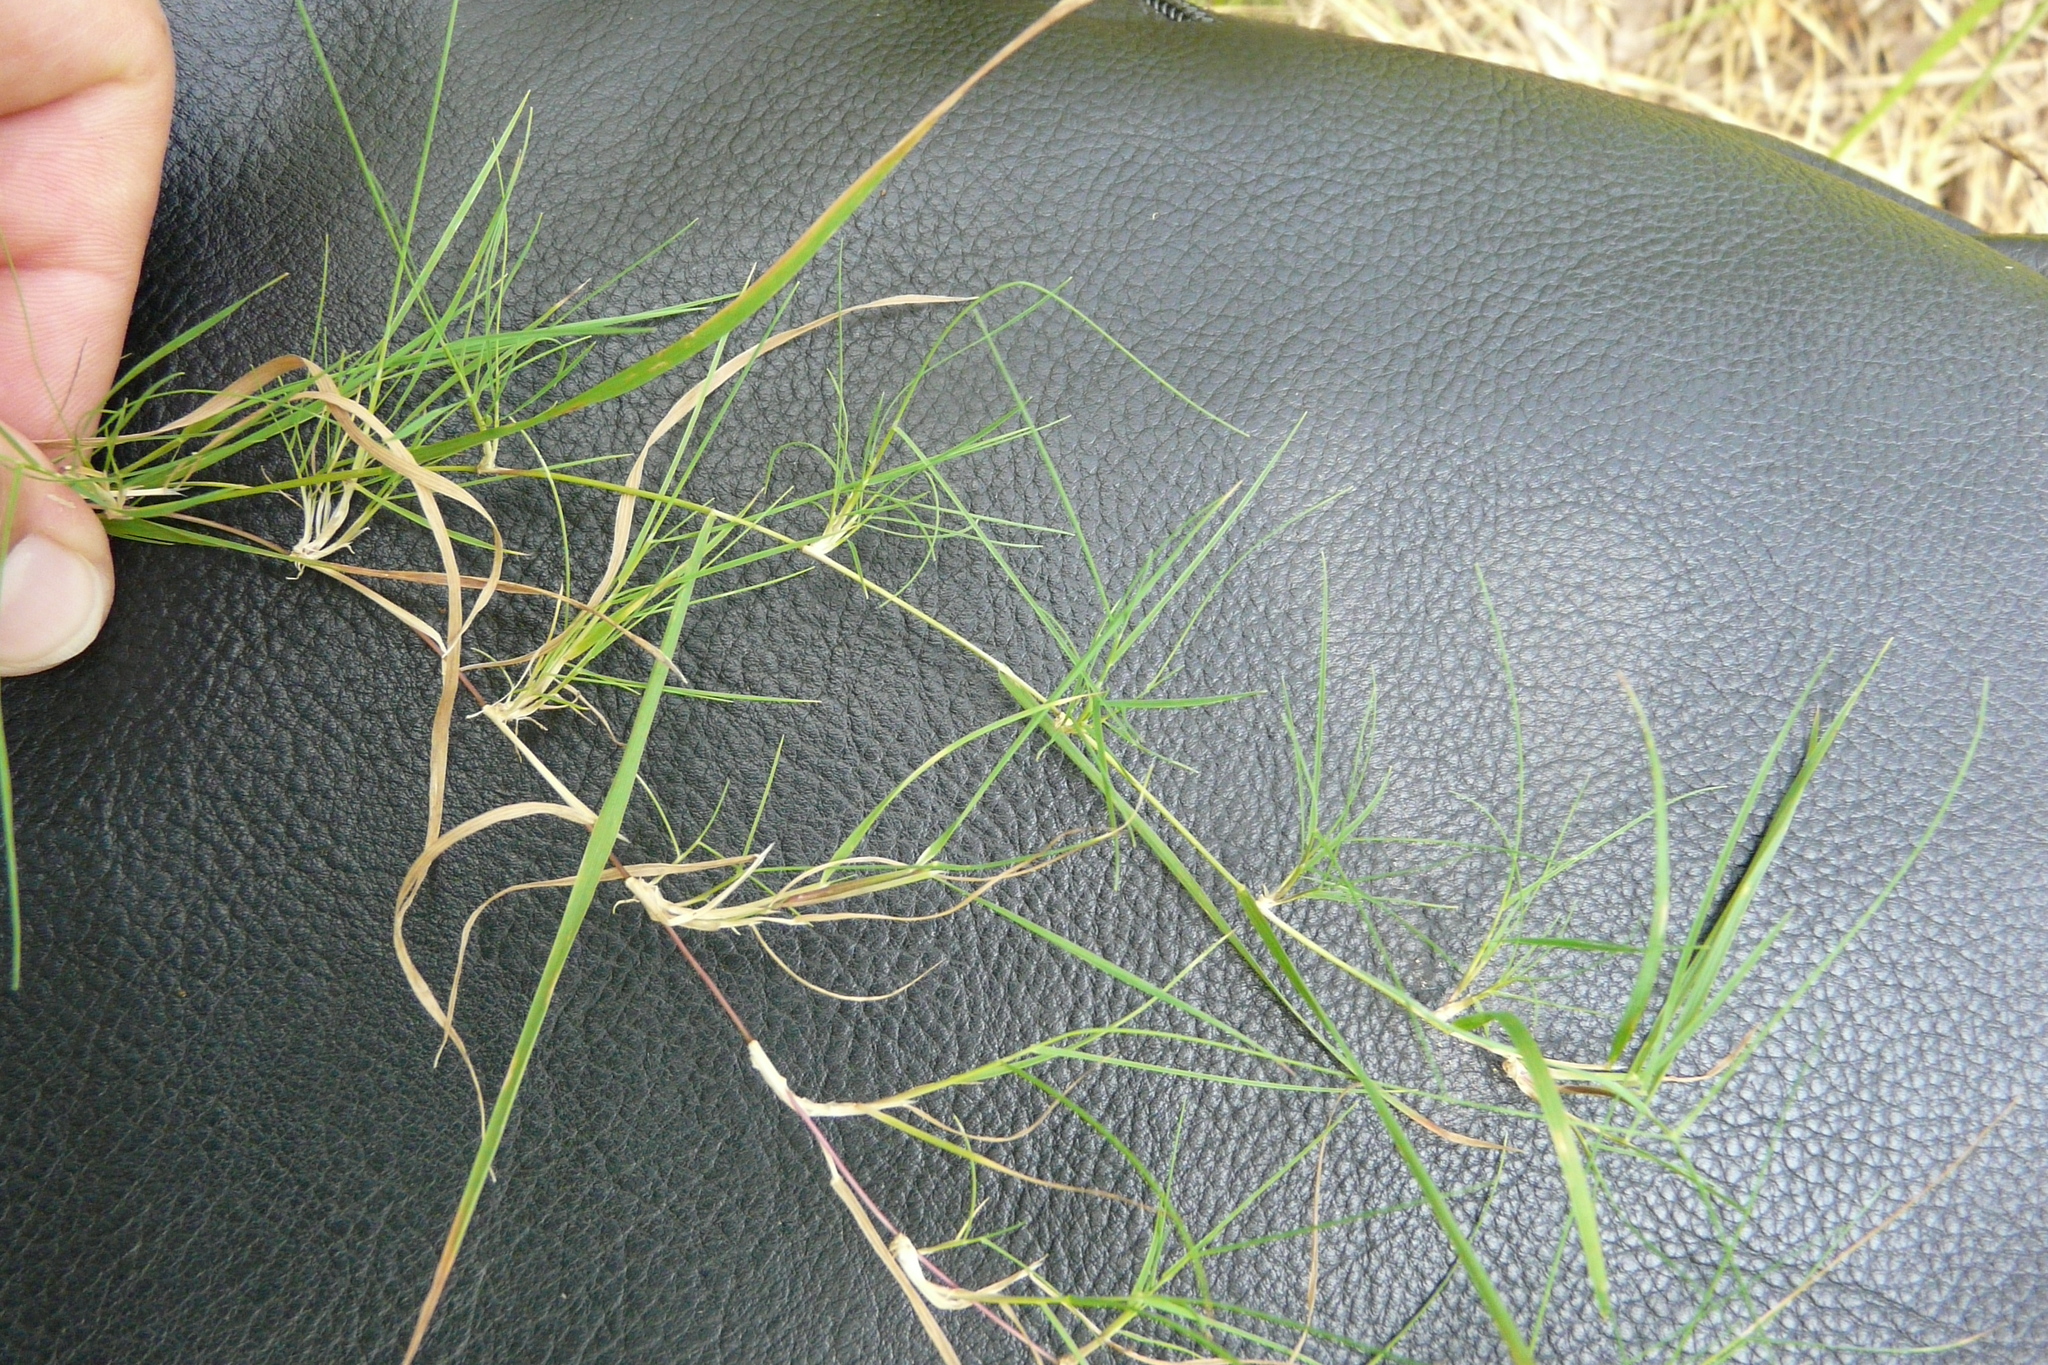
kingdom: Plantae
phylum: Tracheophyta
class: Liliopsida
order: Poales
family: Poaceae
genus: Agrostis
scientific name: Agrostis stolonifera
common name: Creeping bentgrass
